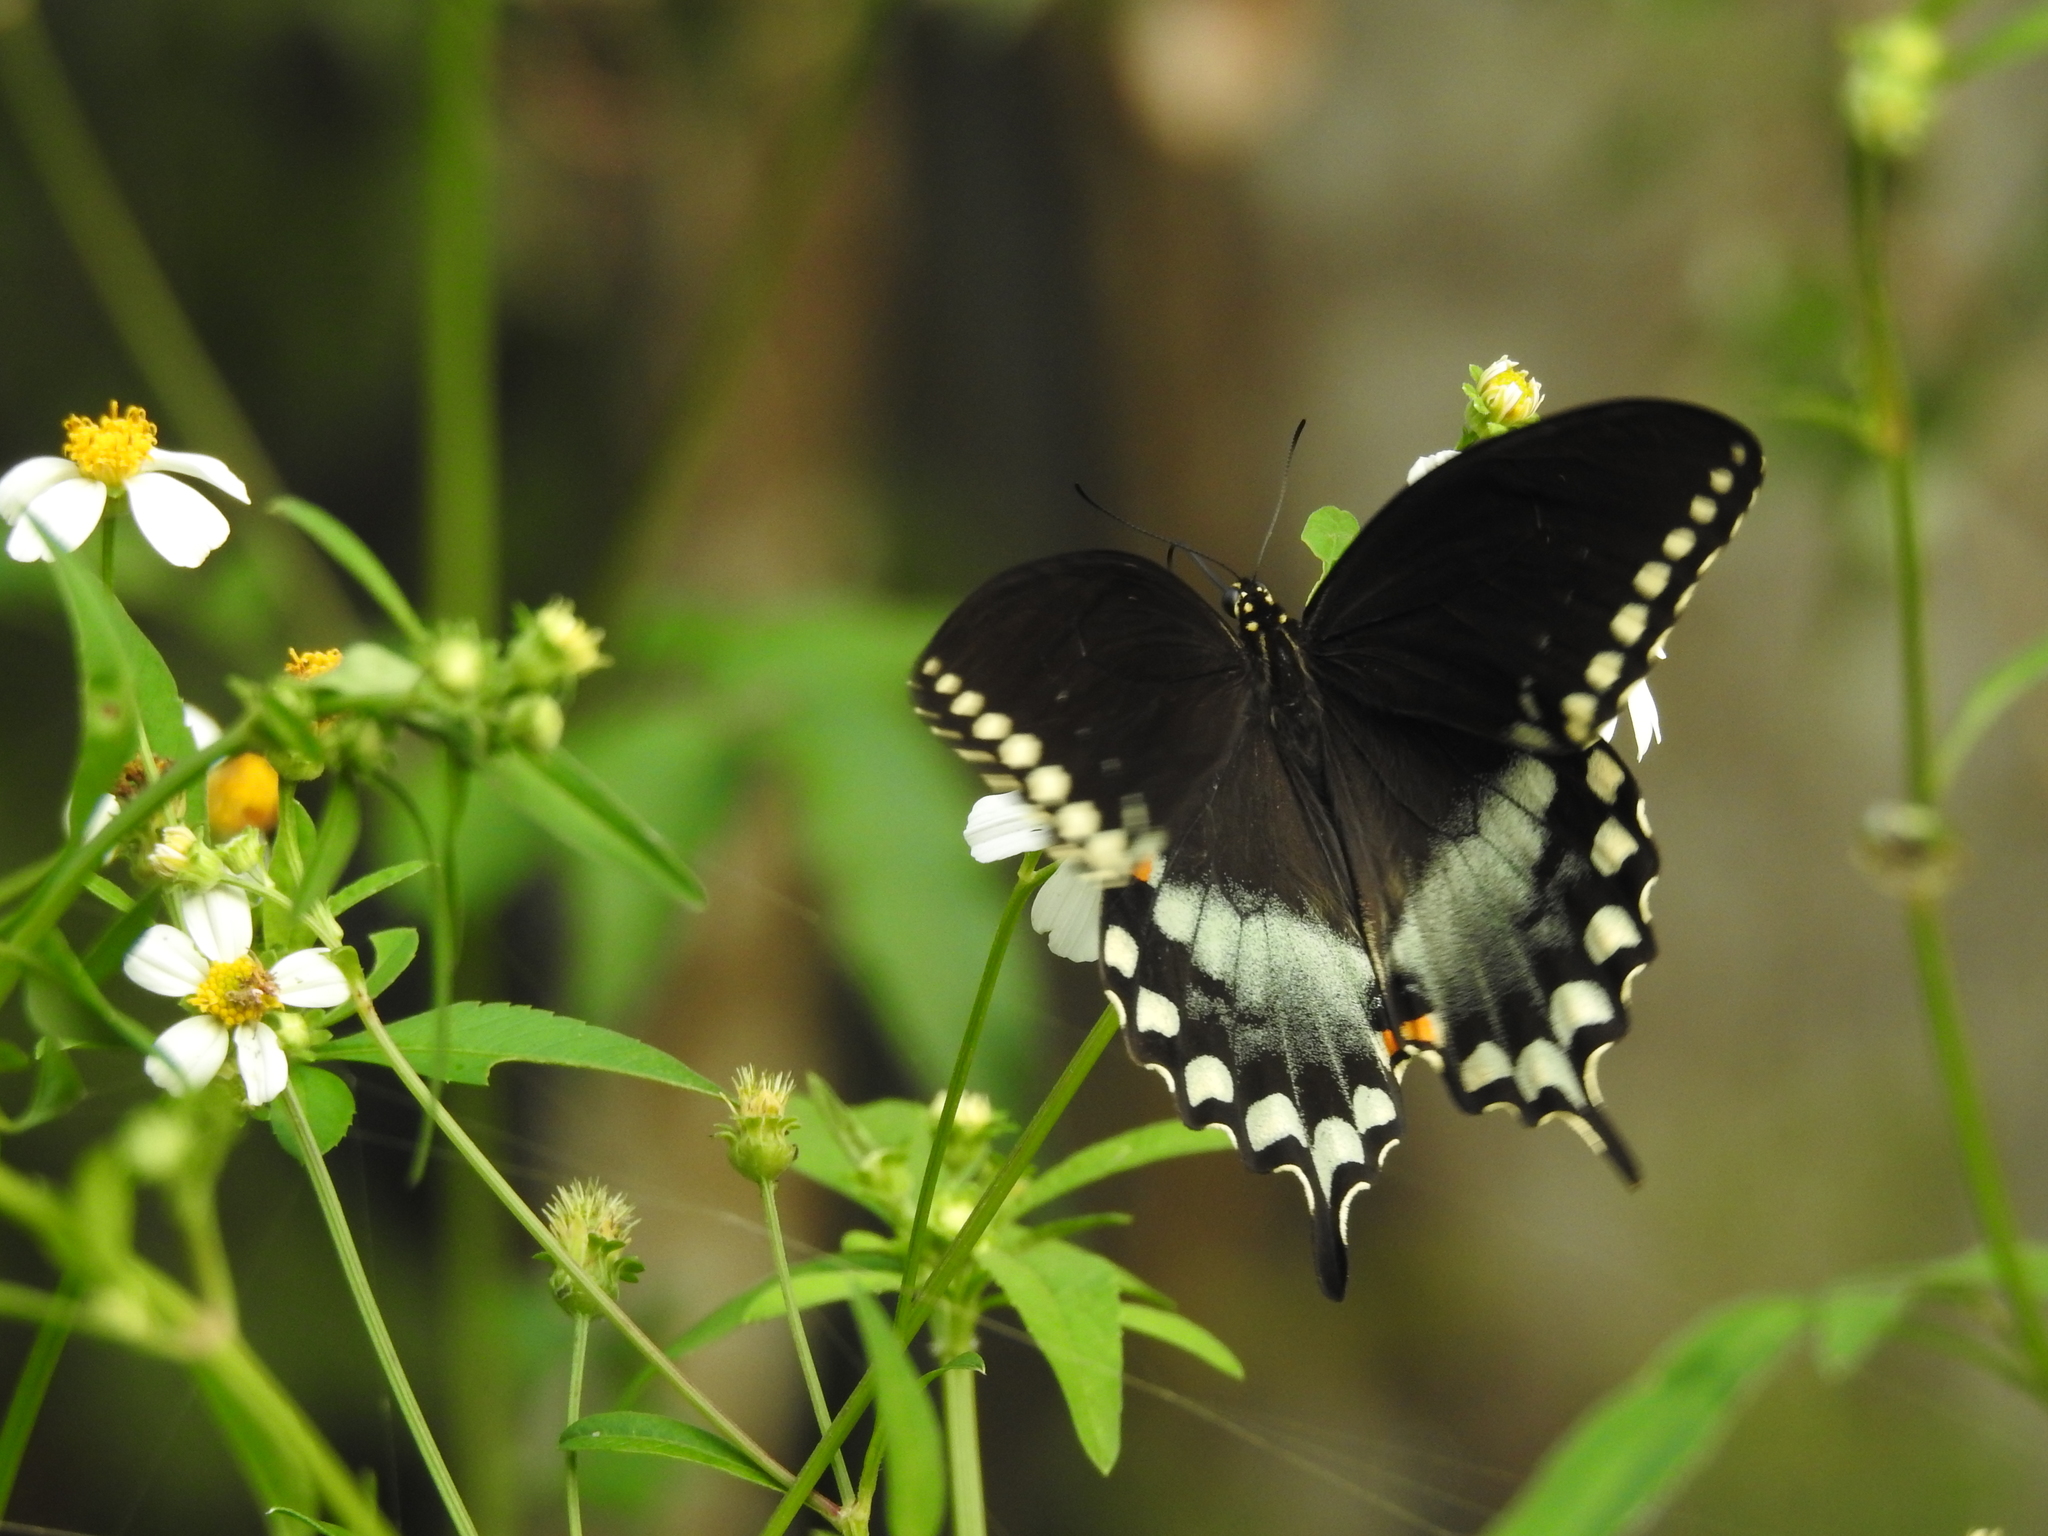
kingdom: Animalia
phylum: Arthropoda
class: Insecta
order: Lepidoptera
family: Papilionidae
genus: Papilio
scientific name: Papilio troilus
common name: Spicebush swallowtail
